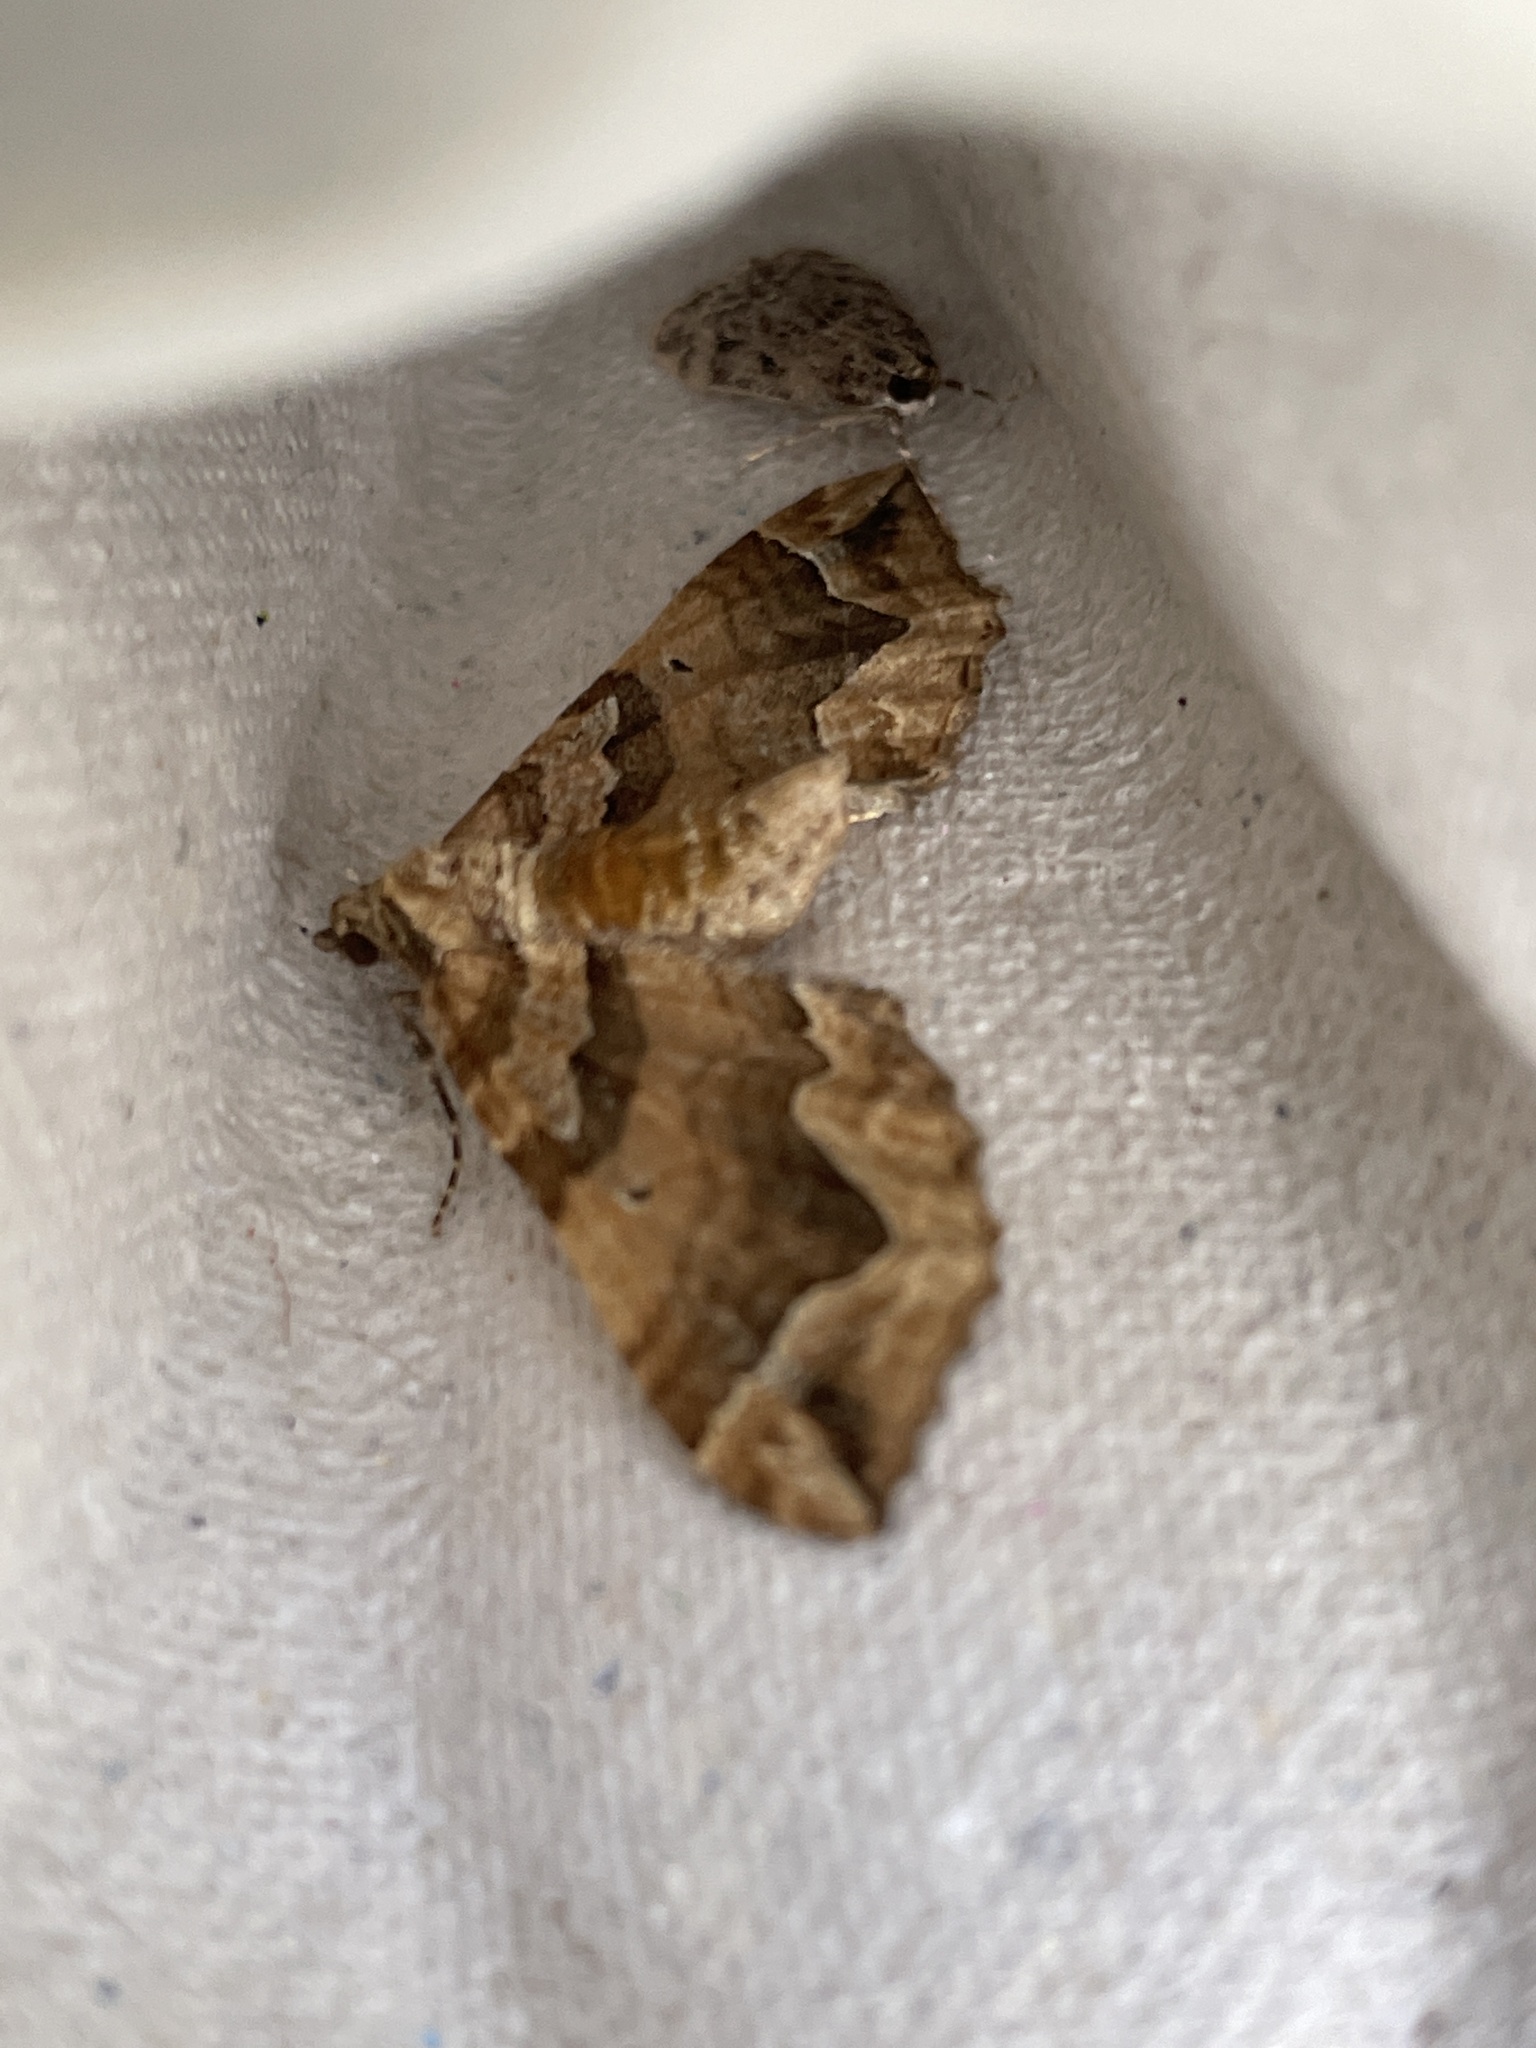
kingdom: Animalia
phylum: Arthropoda
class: Insecta
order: Lepidoptera
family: Geometridae
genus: Pelurga
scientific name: Pelurga comitata
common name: Dark spinach
